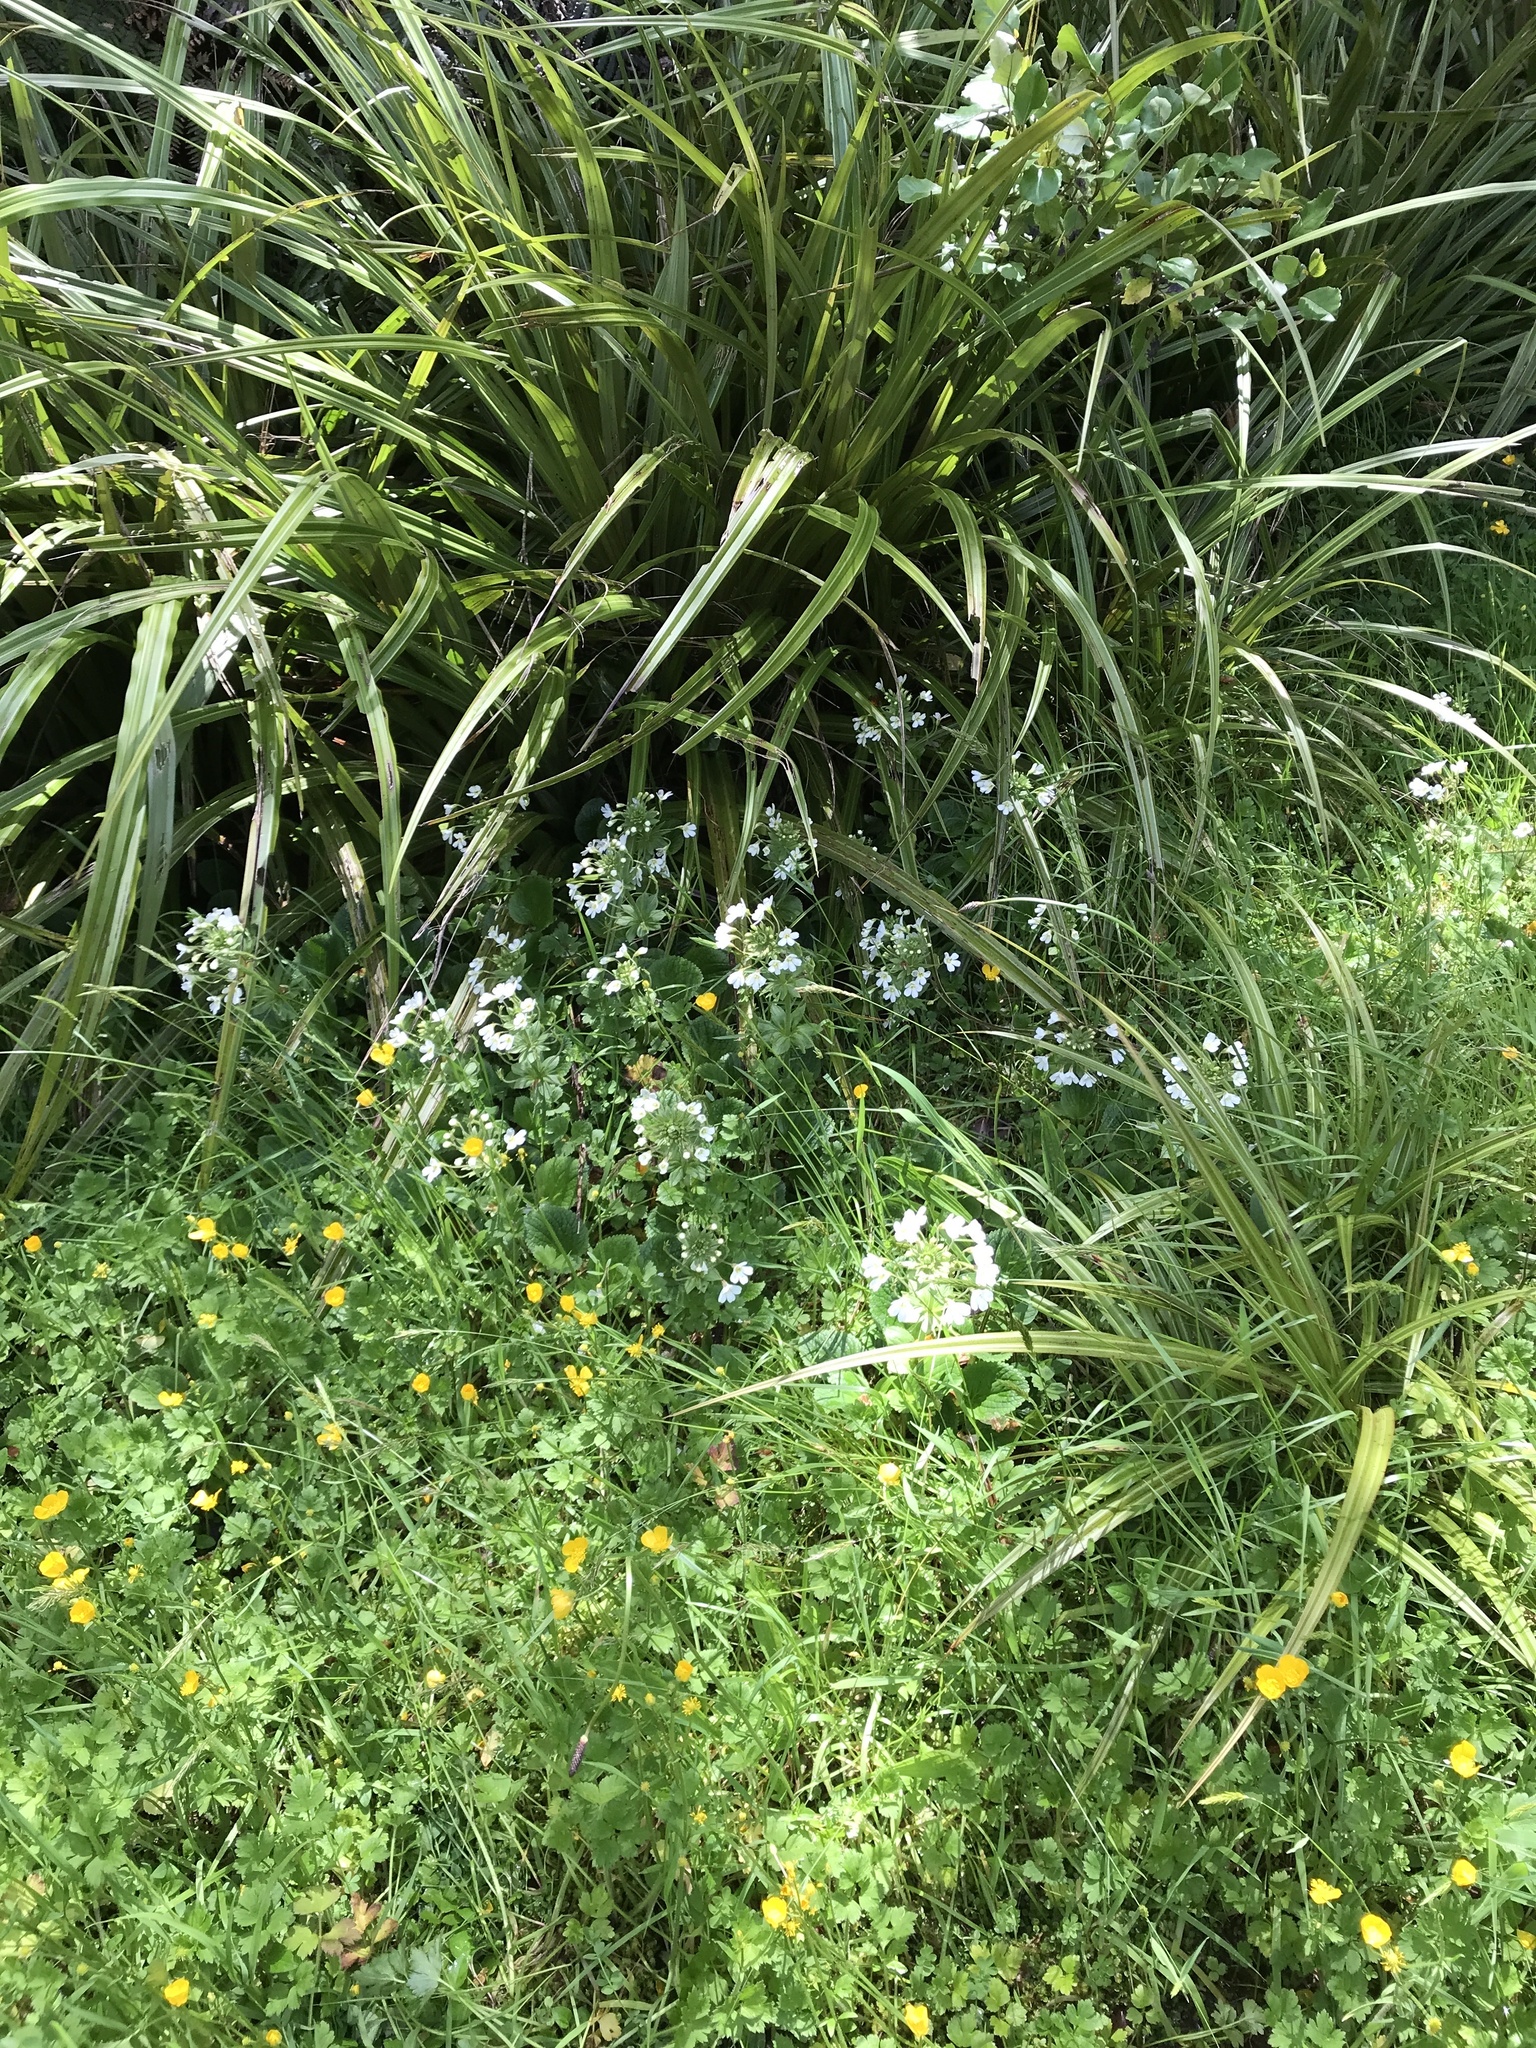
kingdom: Plantae
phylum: Tracheophyta
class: Magnoliopsida
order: Lamiales
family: Plantaginaceae
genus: Ourisia
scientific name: Ourisia macrophylla
